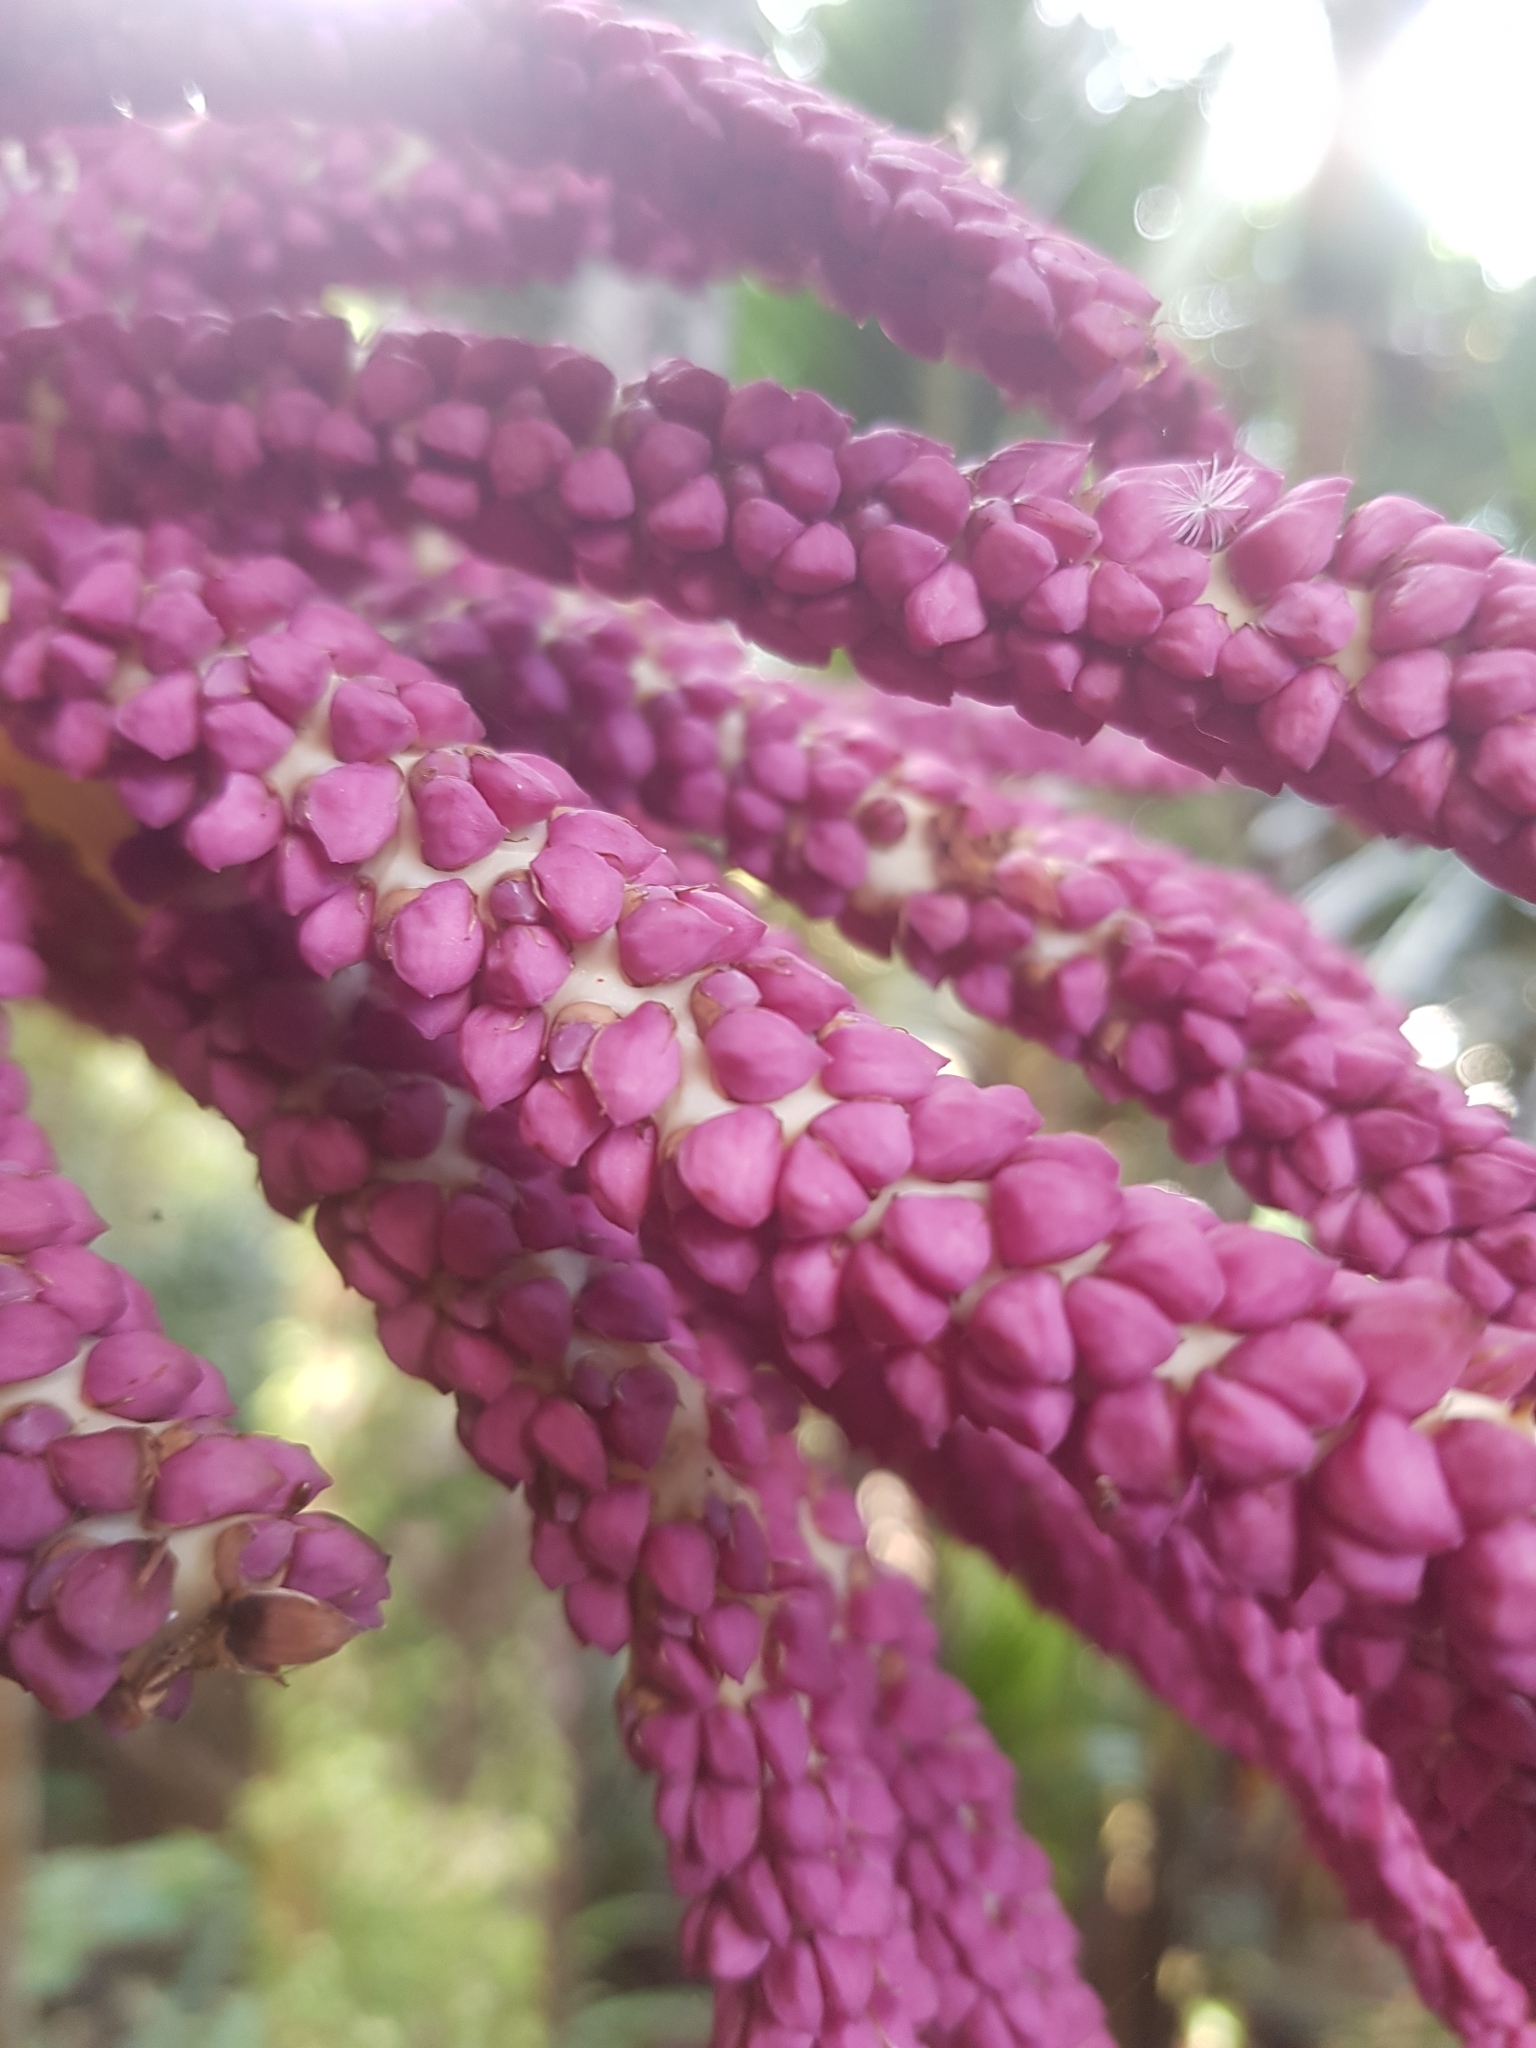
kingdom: Plantae
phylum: Tracheophyta
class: Liliopsida
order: Arecales
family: Arecaceae
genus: Rhopalostylis
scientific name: Rhopalostylis sapida
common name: Feather-duster palm
